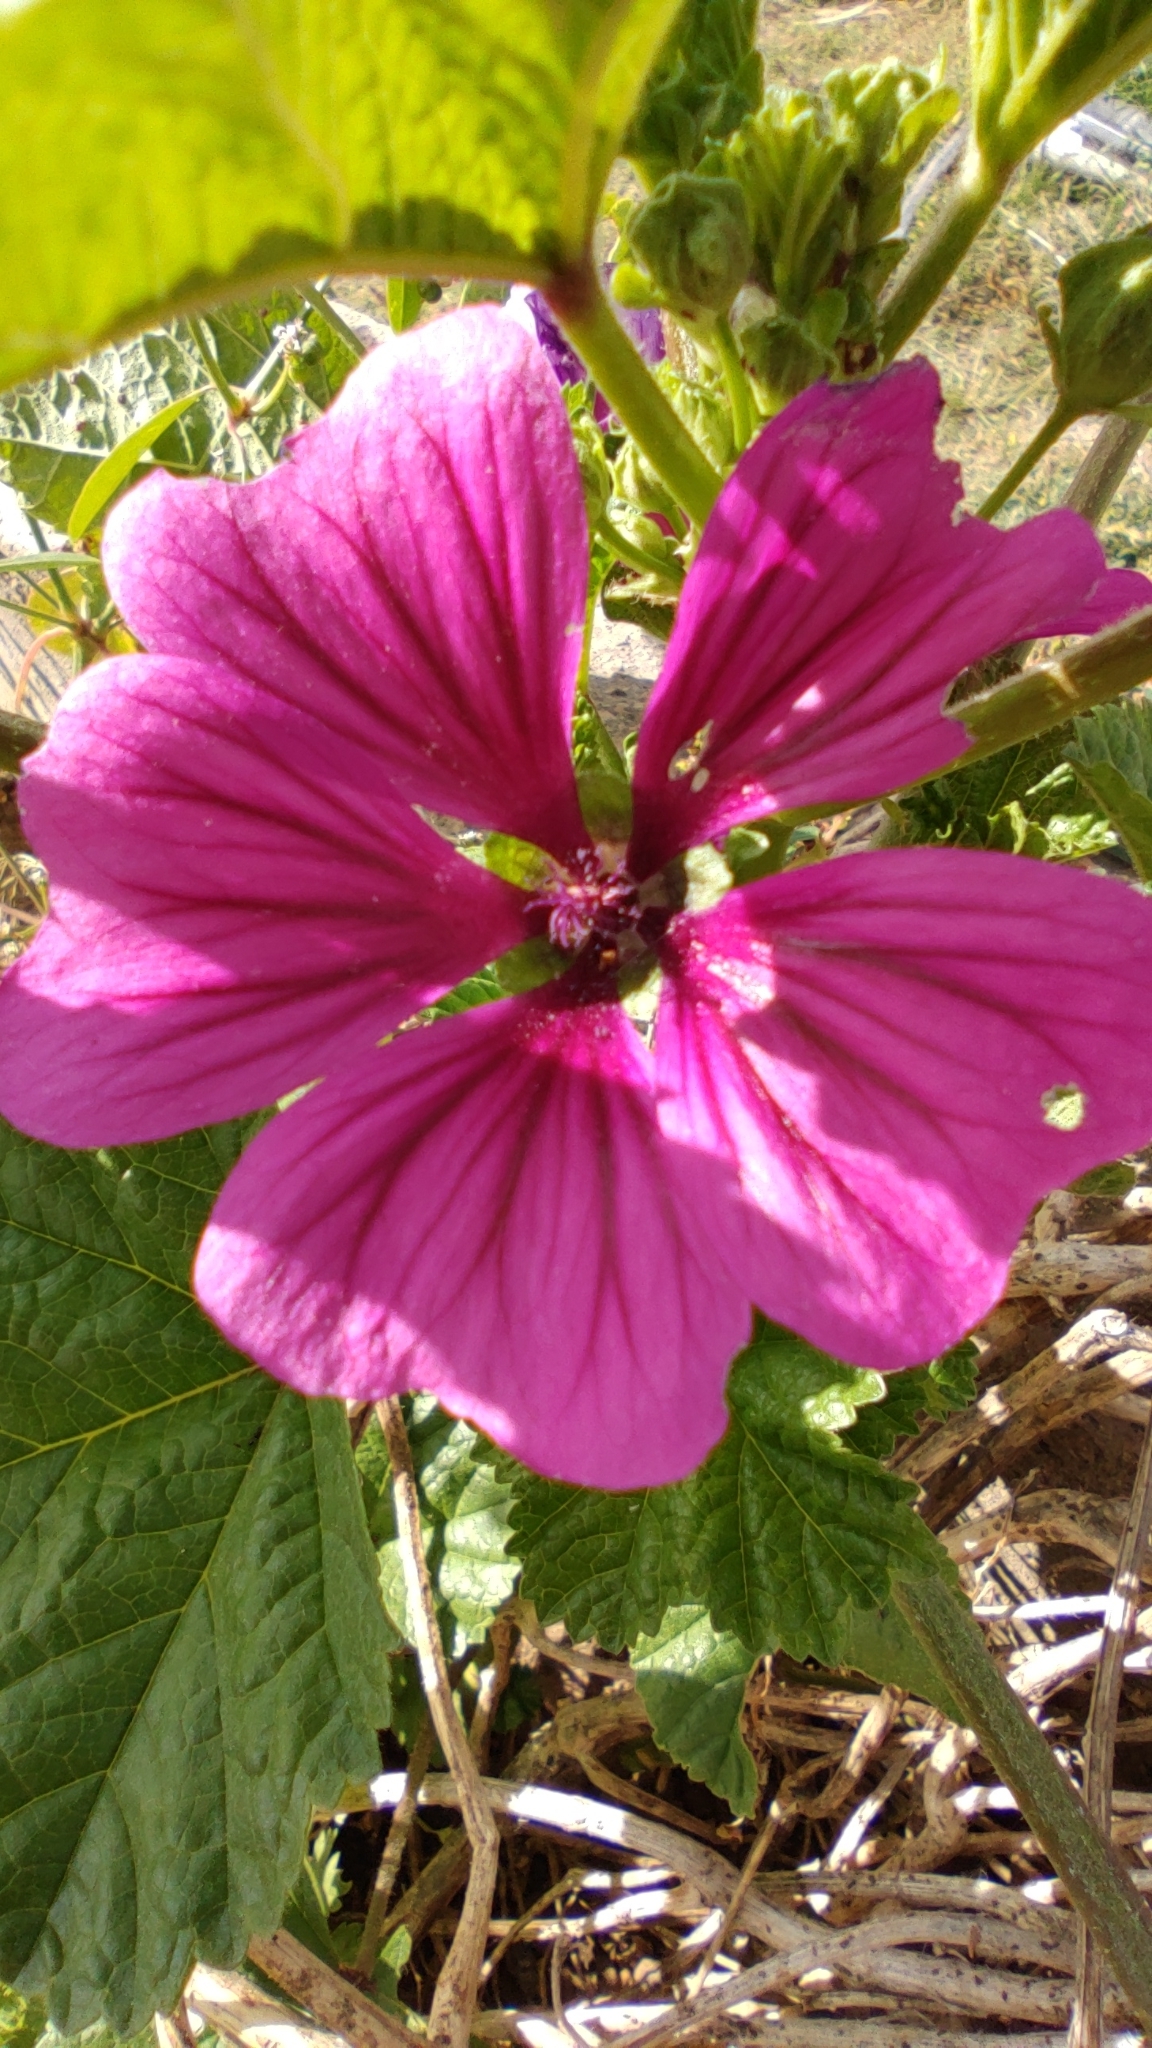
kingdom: Plantae
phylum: Tracheophyta
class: Magnoliopsida
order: Malvales
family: Malvaceae
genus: Malva
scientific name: Malva sylvestris
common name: Common mallow
